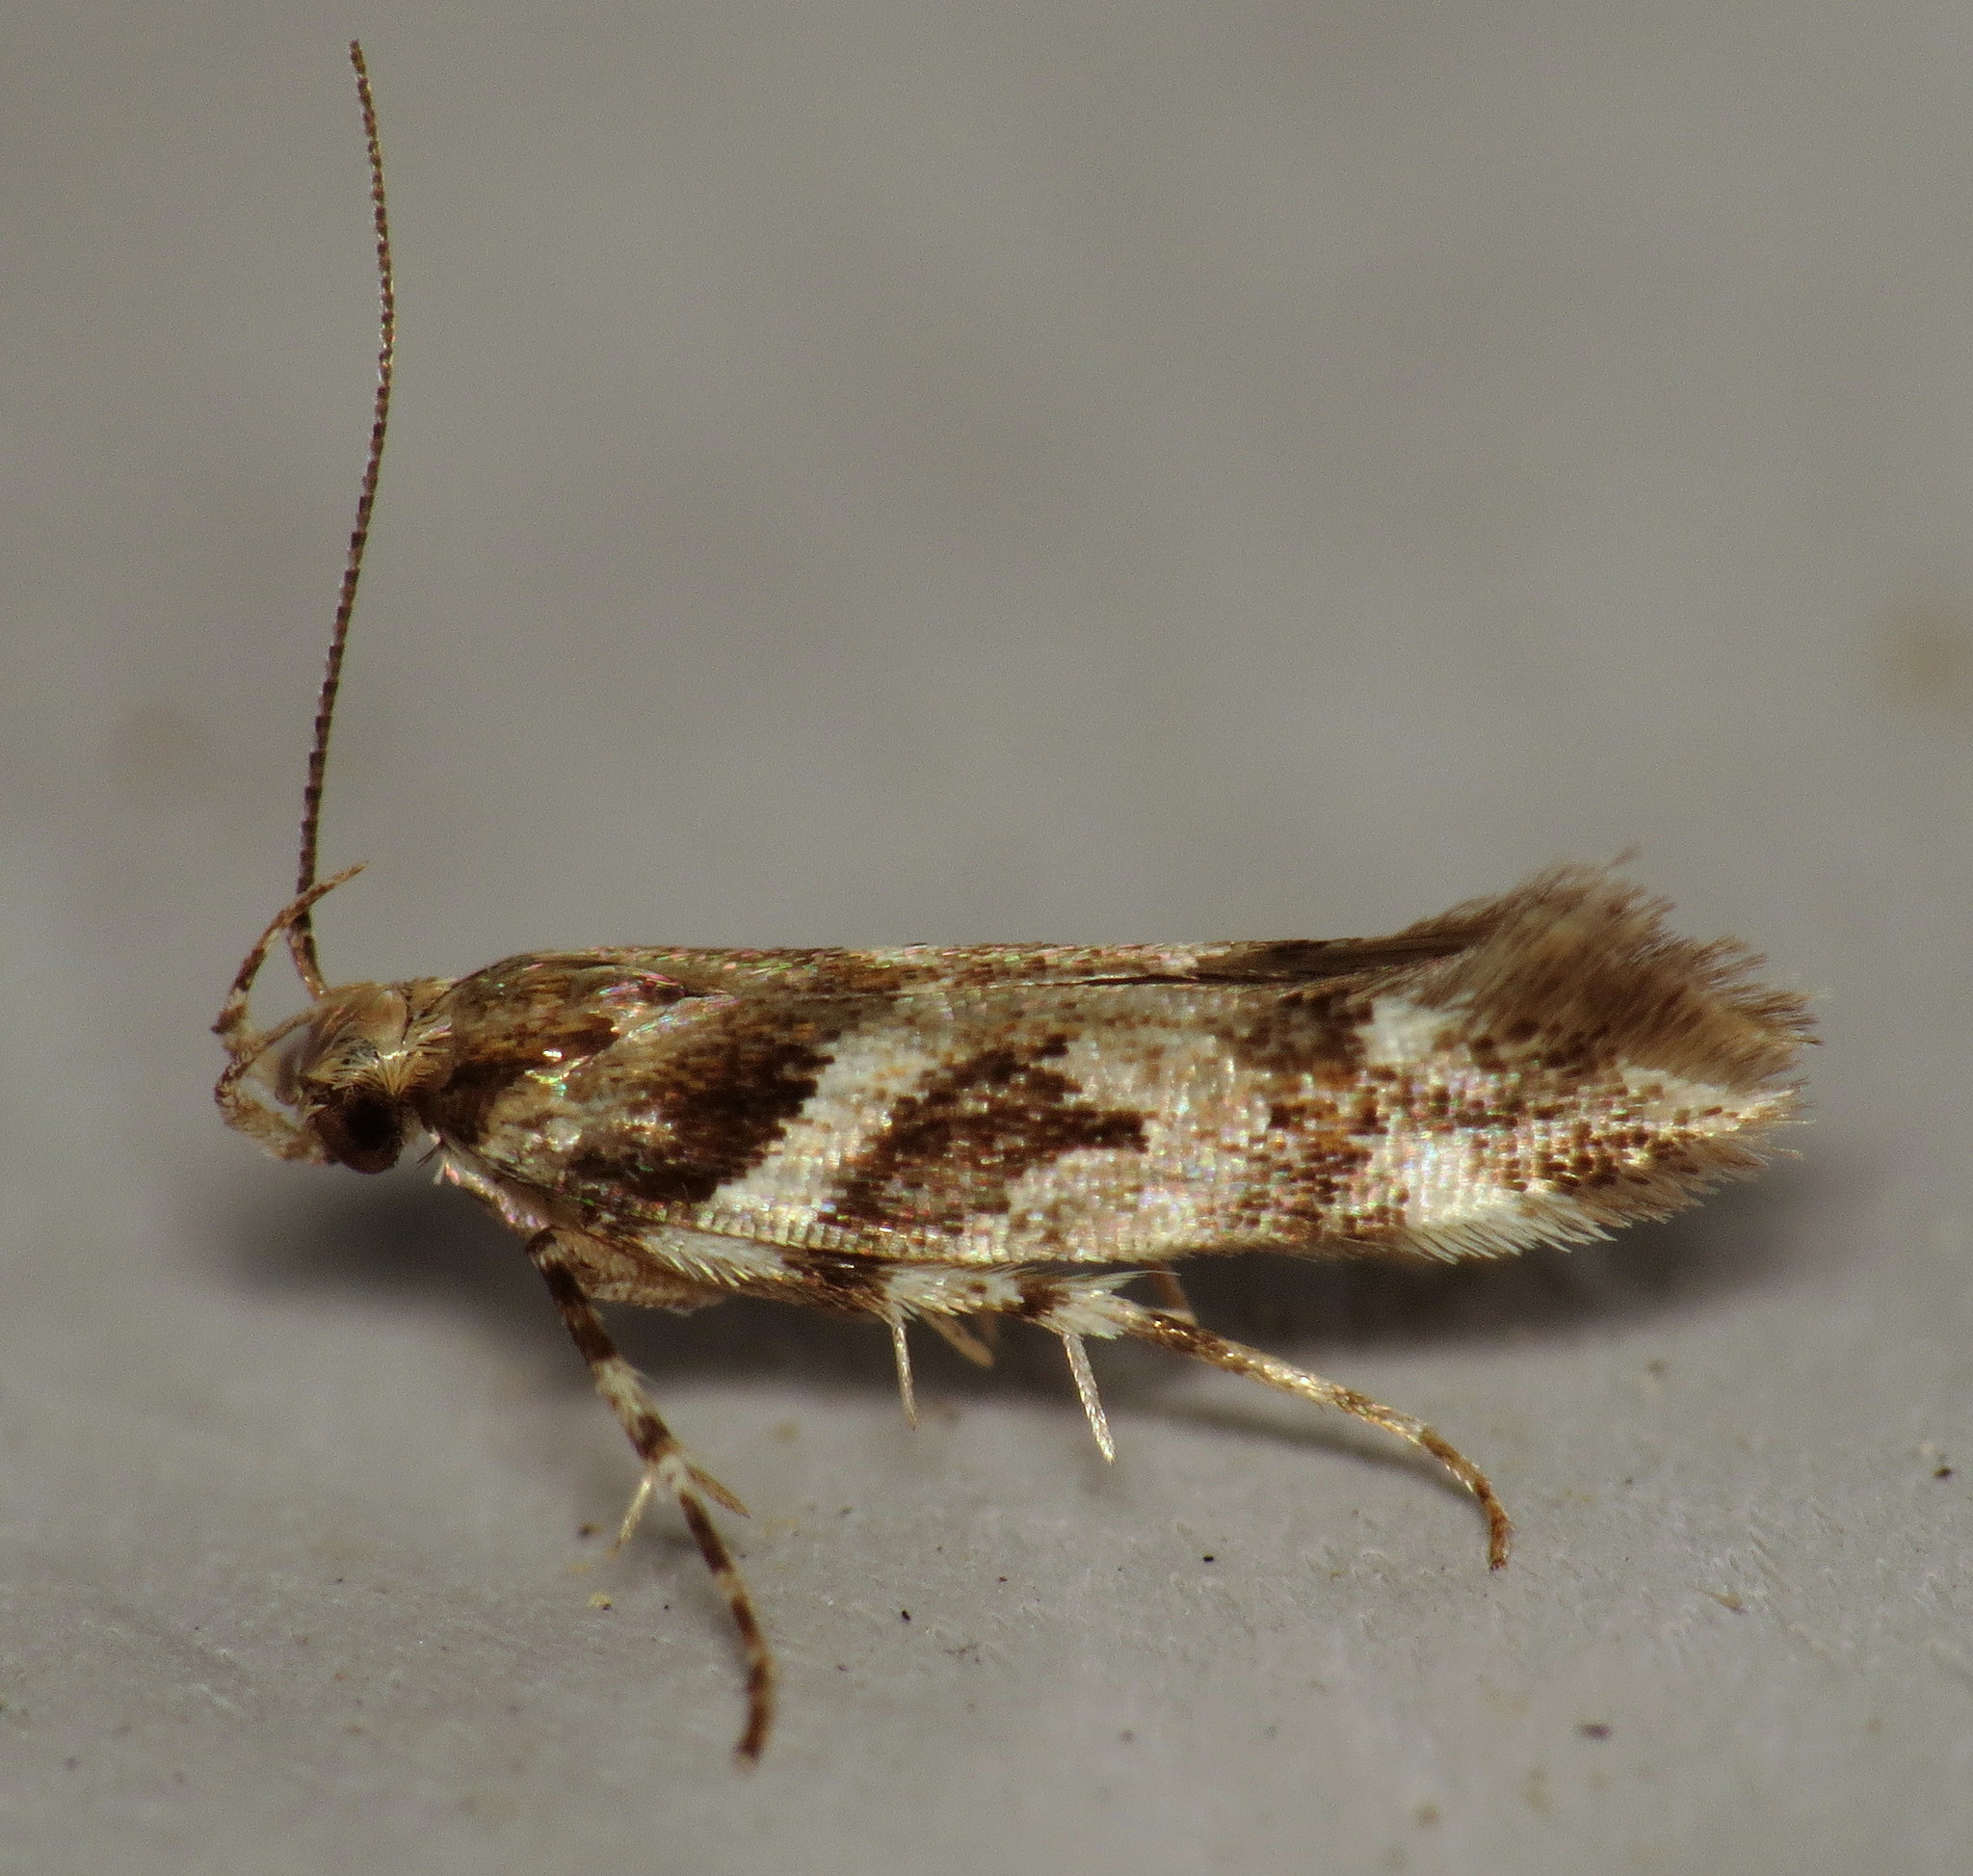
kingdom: Animalia
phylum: Arthropoda
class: Insecta
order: Lepidoptera
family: Gelechiidae
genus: Aristotelia
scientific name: Aristotelia roseosuffusella
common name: Pink-washed aristotelia moth
